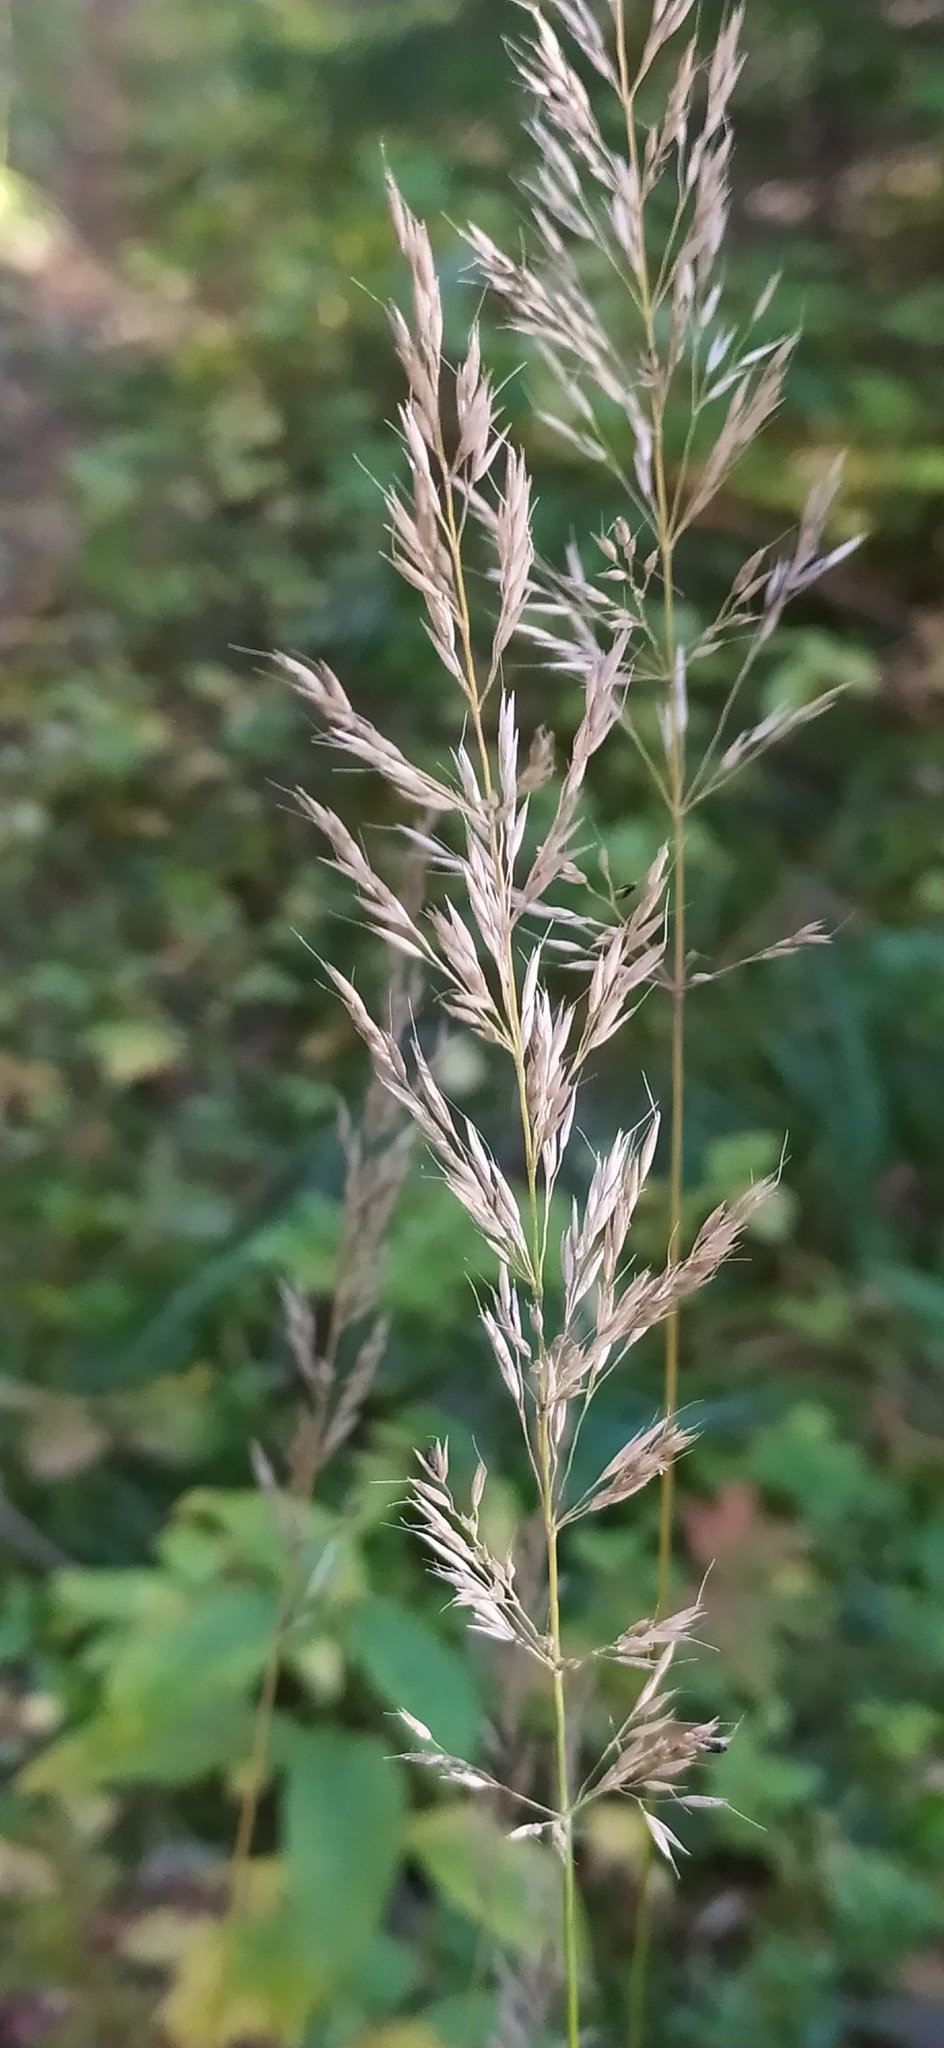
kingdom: Plantae
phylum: Tracheophyta
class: Liliopsida
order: Poales
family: Poaceae
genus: Calamagrostis
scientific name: Calamagrostis arundinacea
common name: Metskastik
